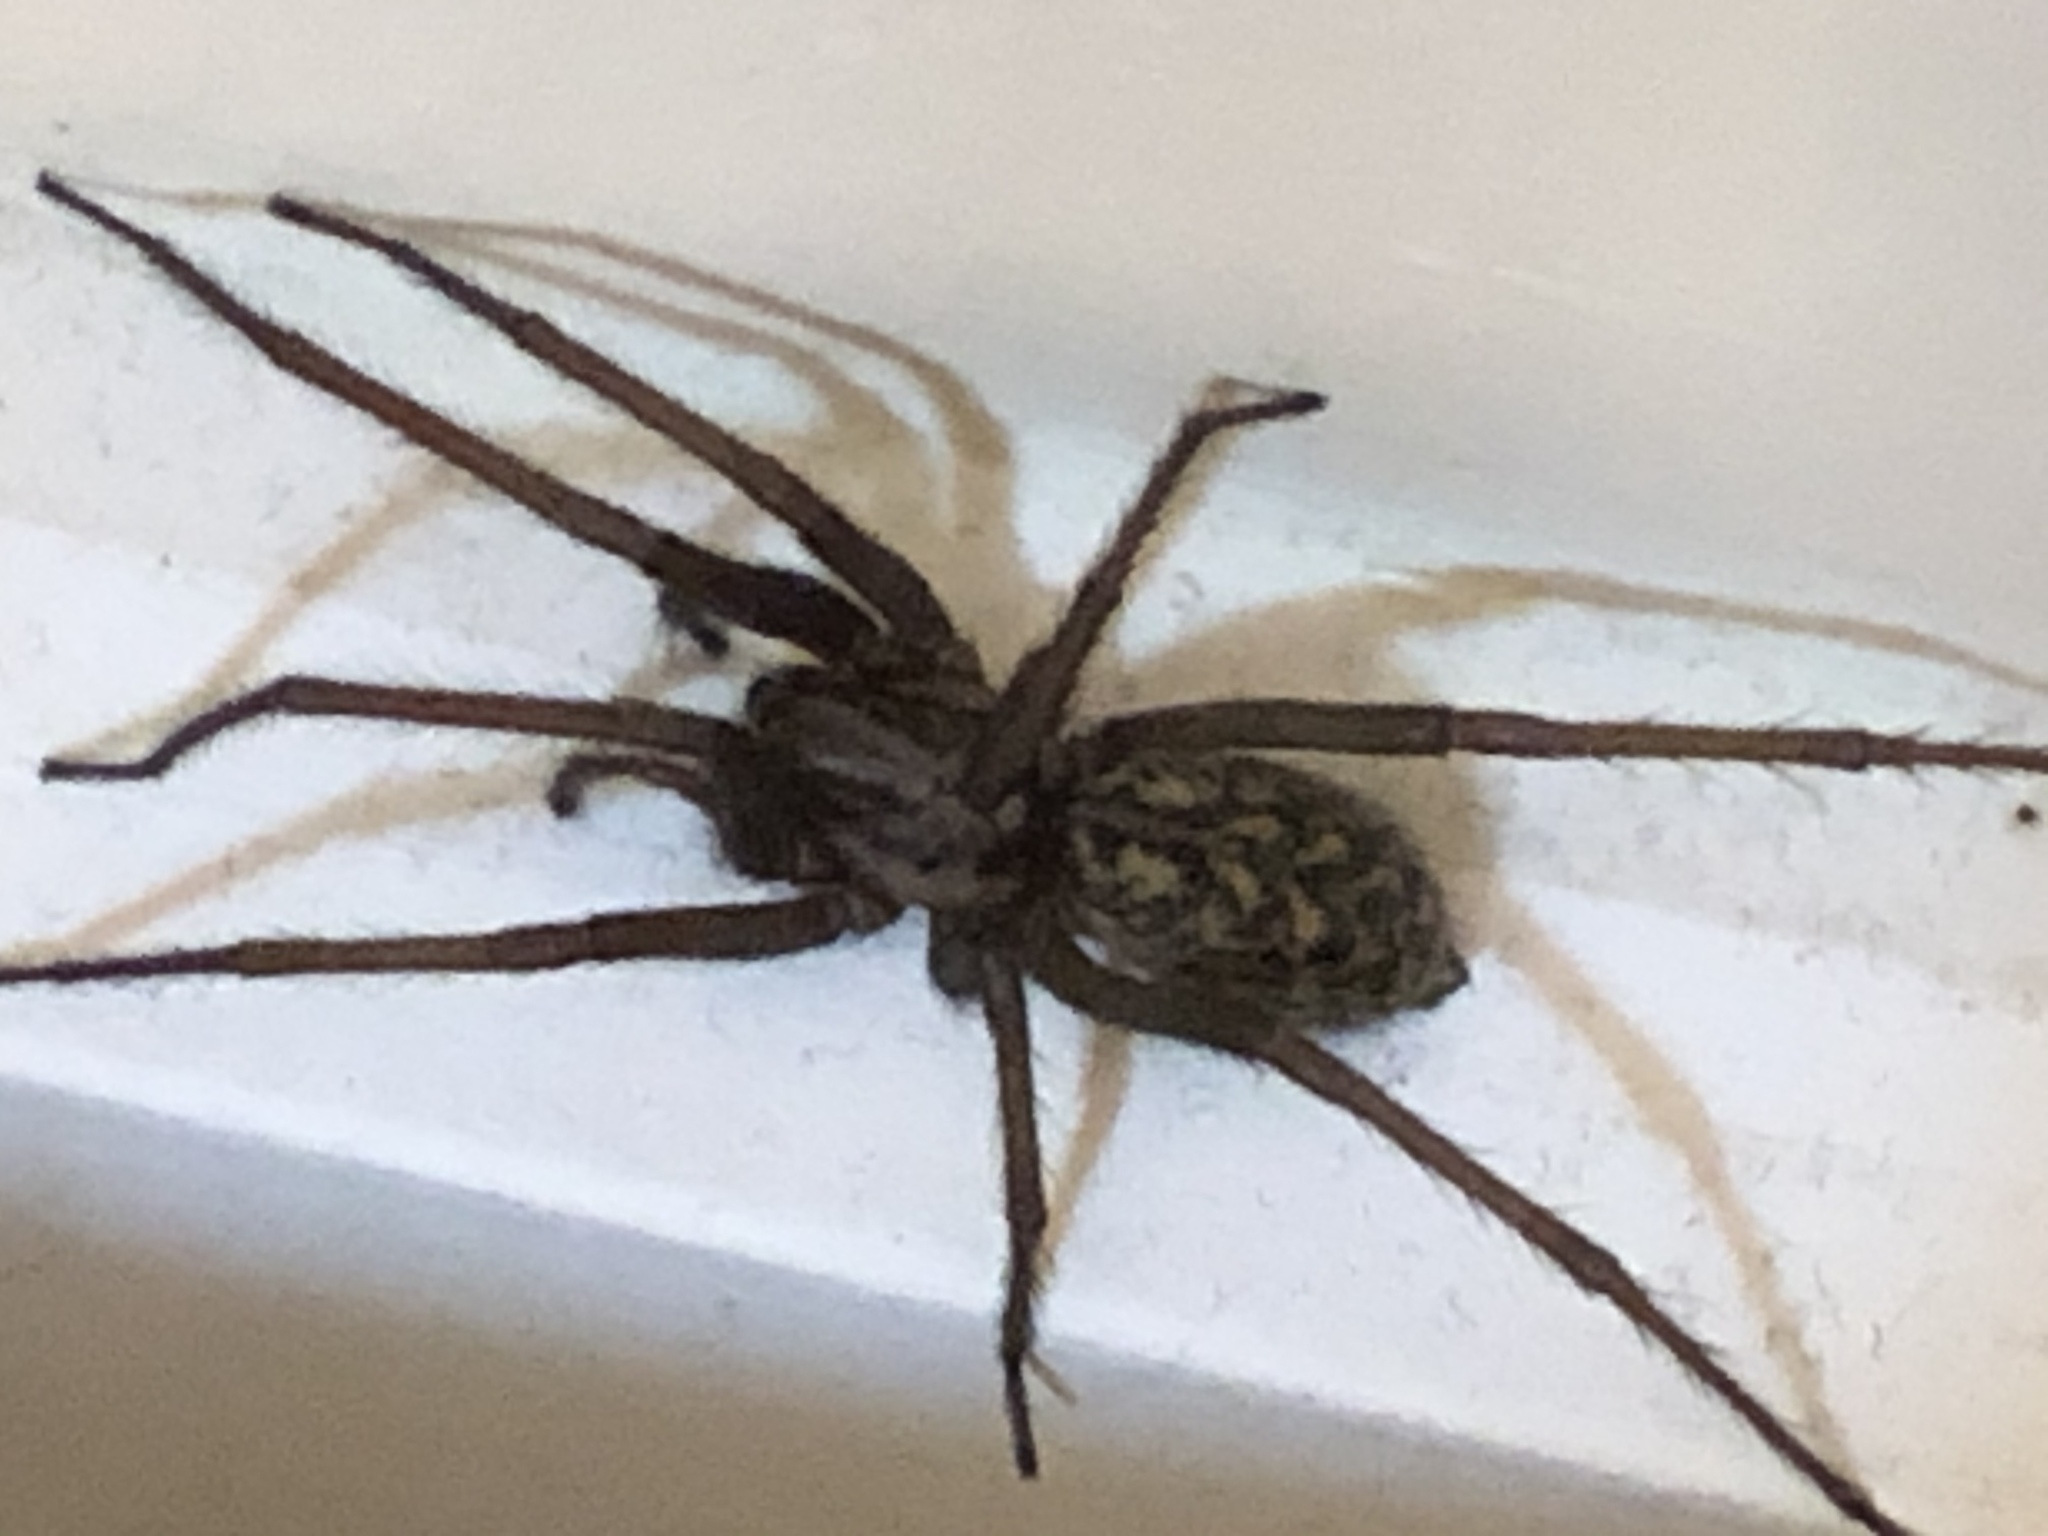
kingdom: Animalia
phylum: Arthropoda
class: Arachnida
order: Araneae
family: Agelenidae
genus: Eratigena
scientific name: Eratigena atrica
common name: Giant house spider
